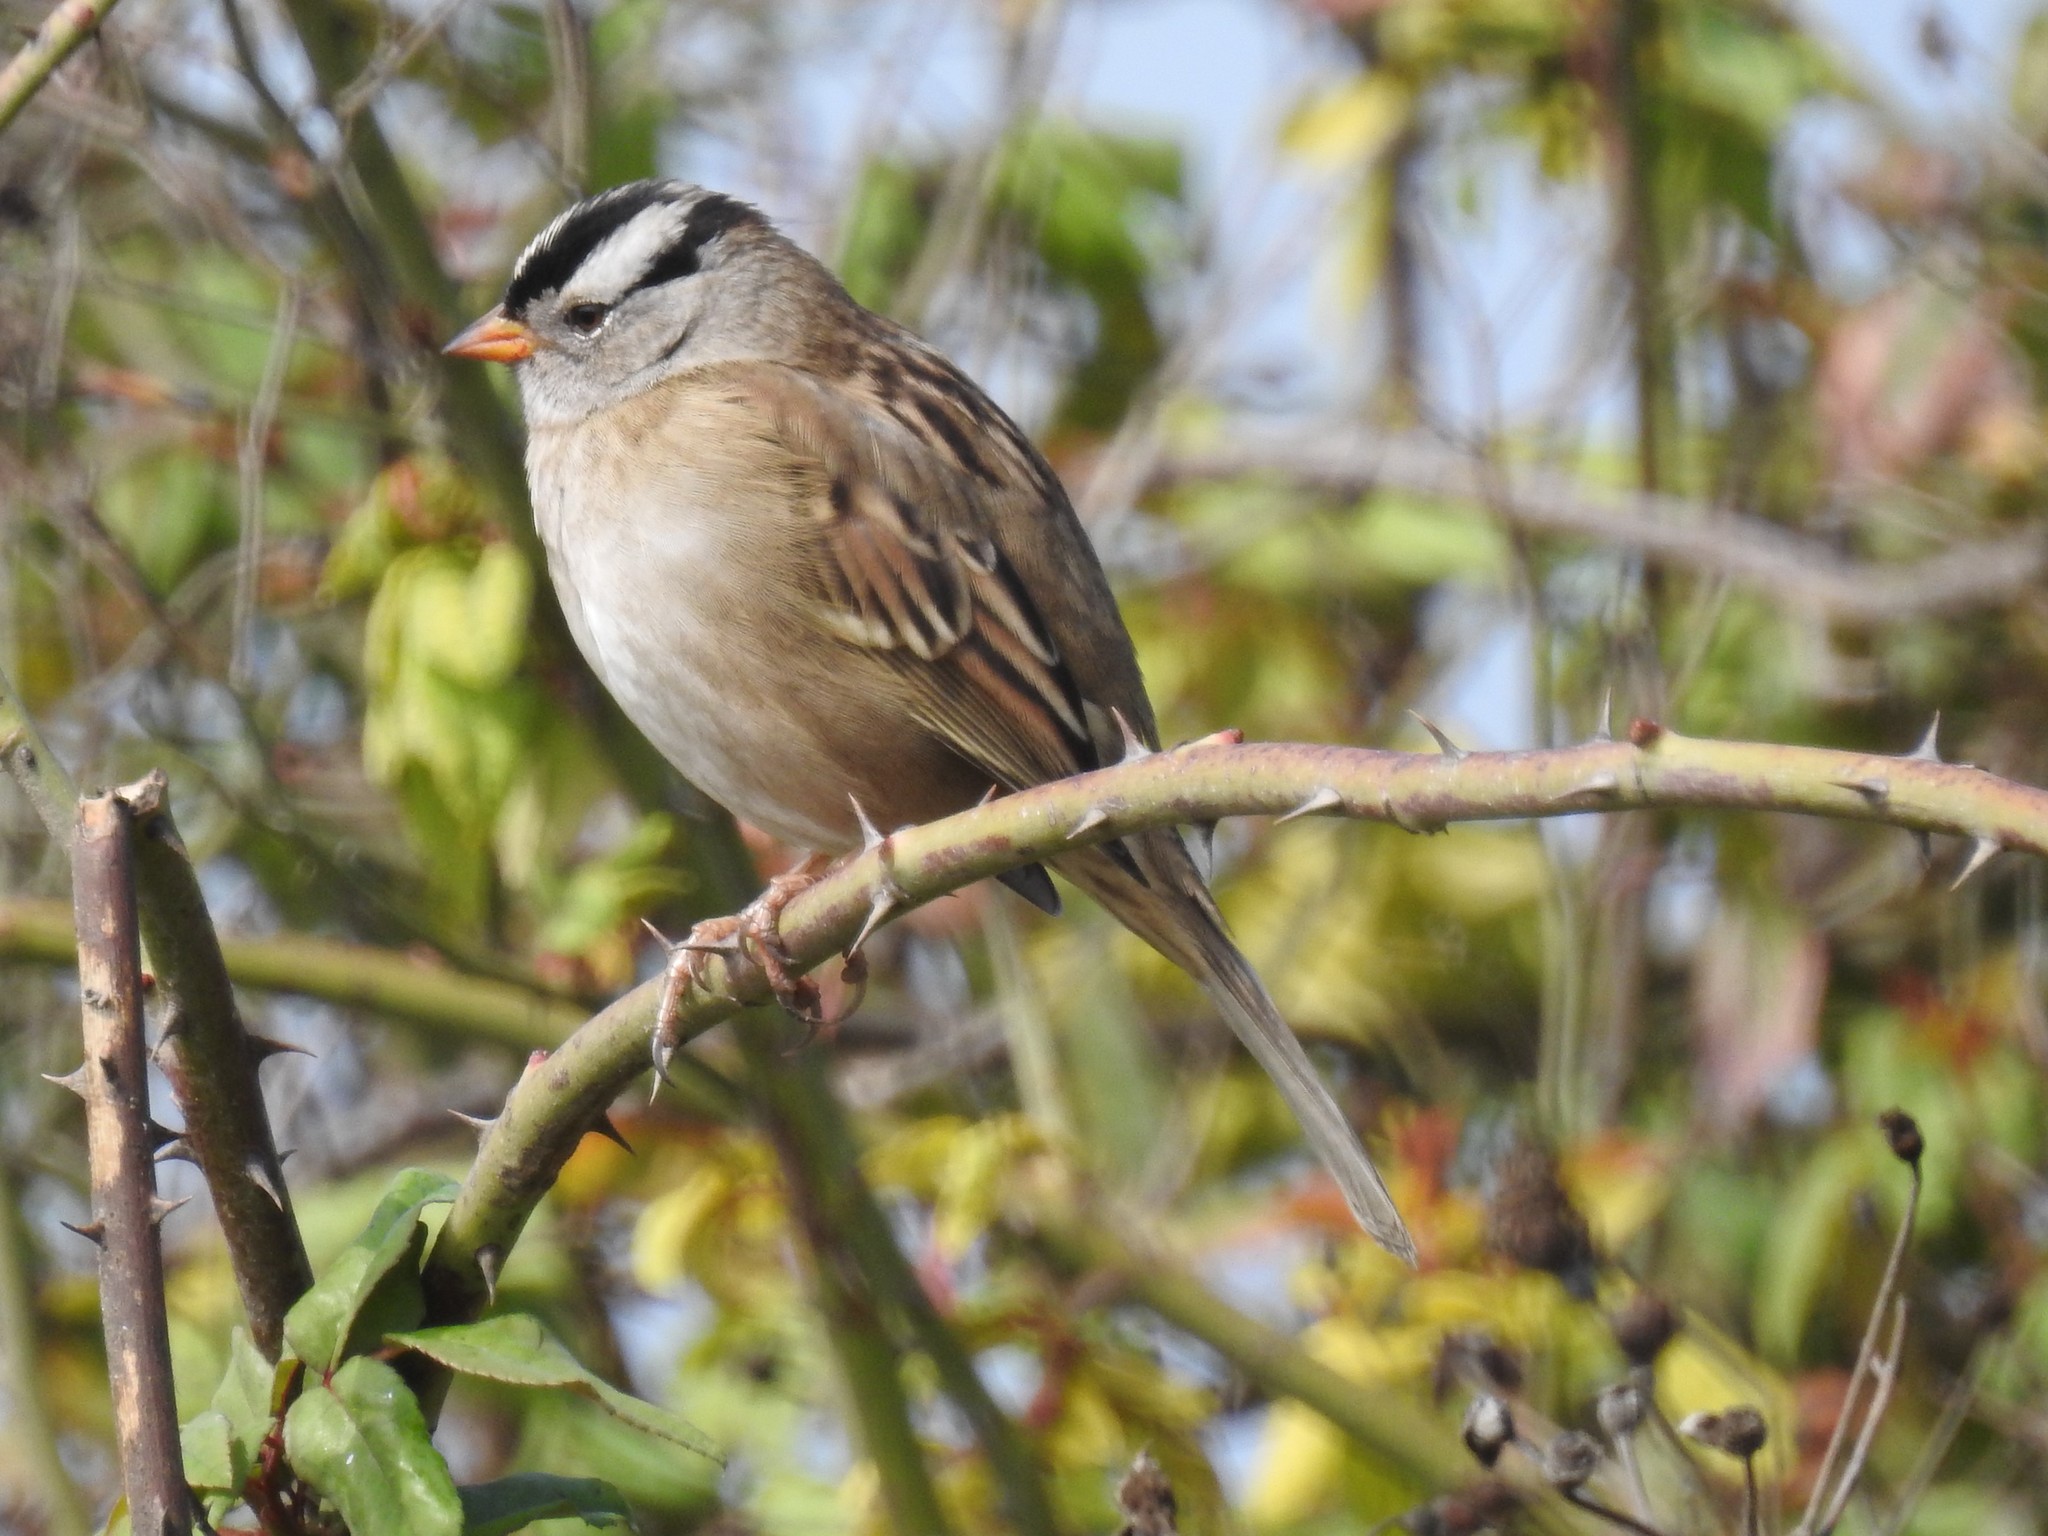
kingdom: Animalia
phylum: Chordata
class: Aves
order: Passeriformes
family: Passerellidae
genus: Zonotrichia
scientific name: Zonotrichia leucophrys
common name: White-crowned sparrow
